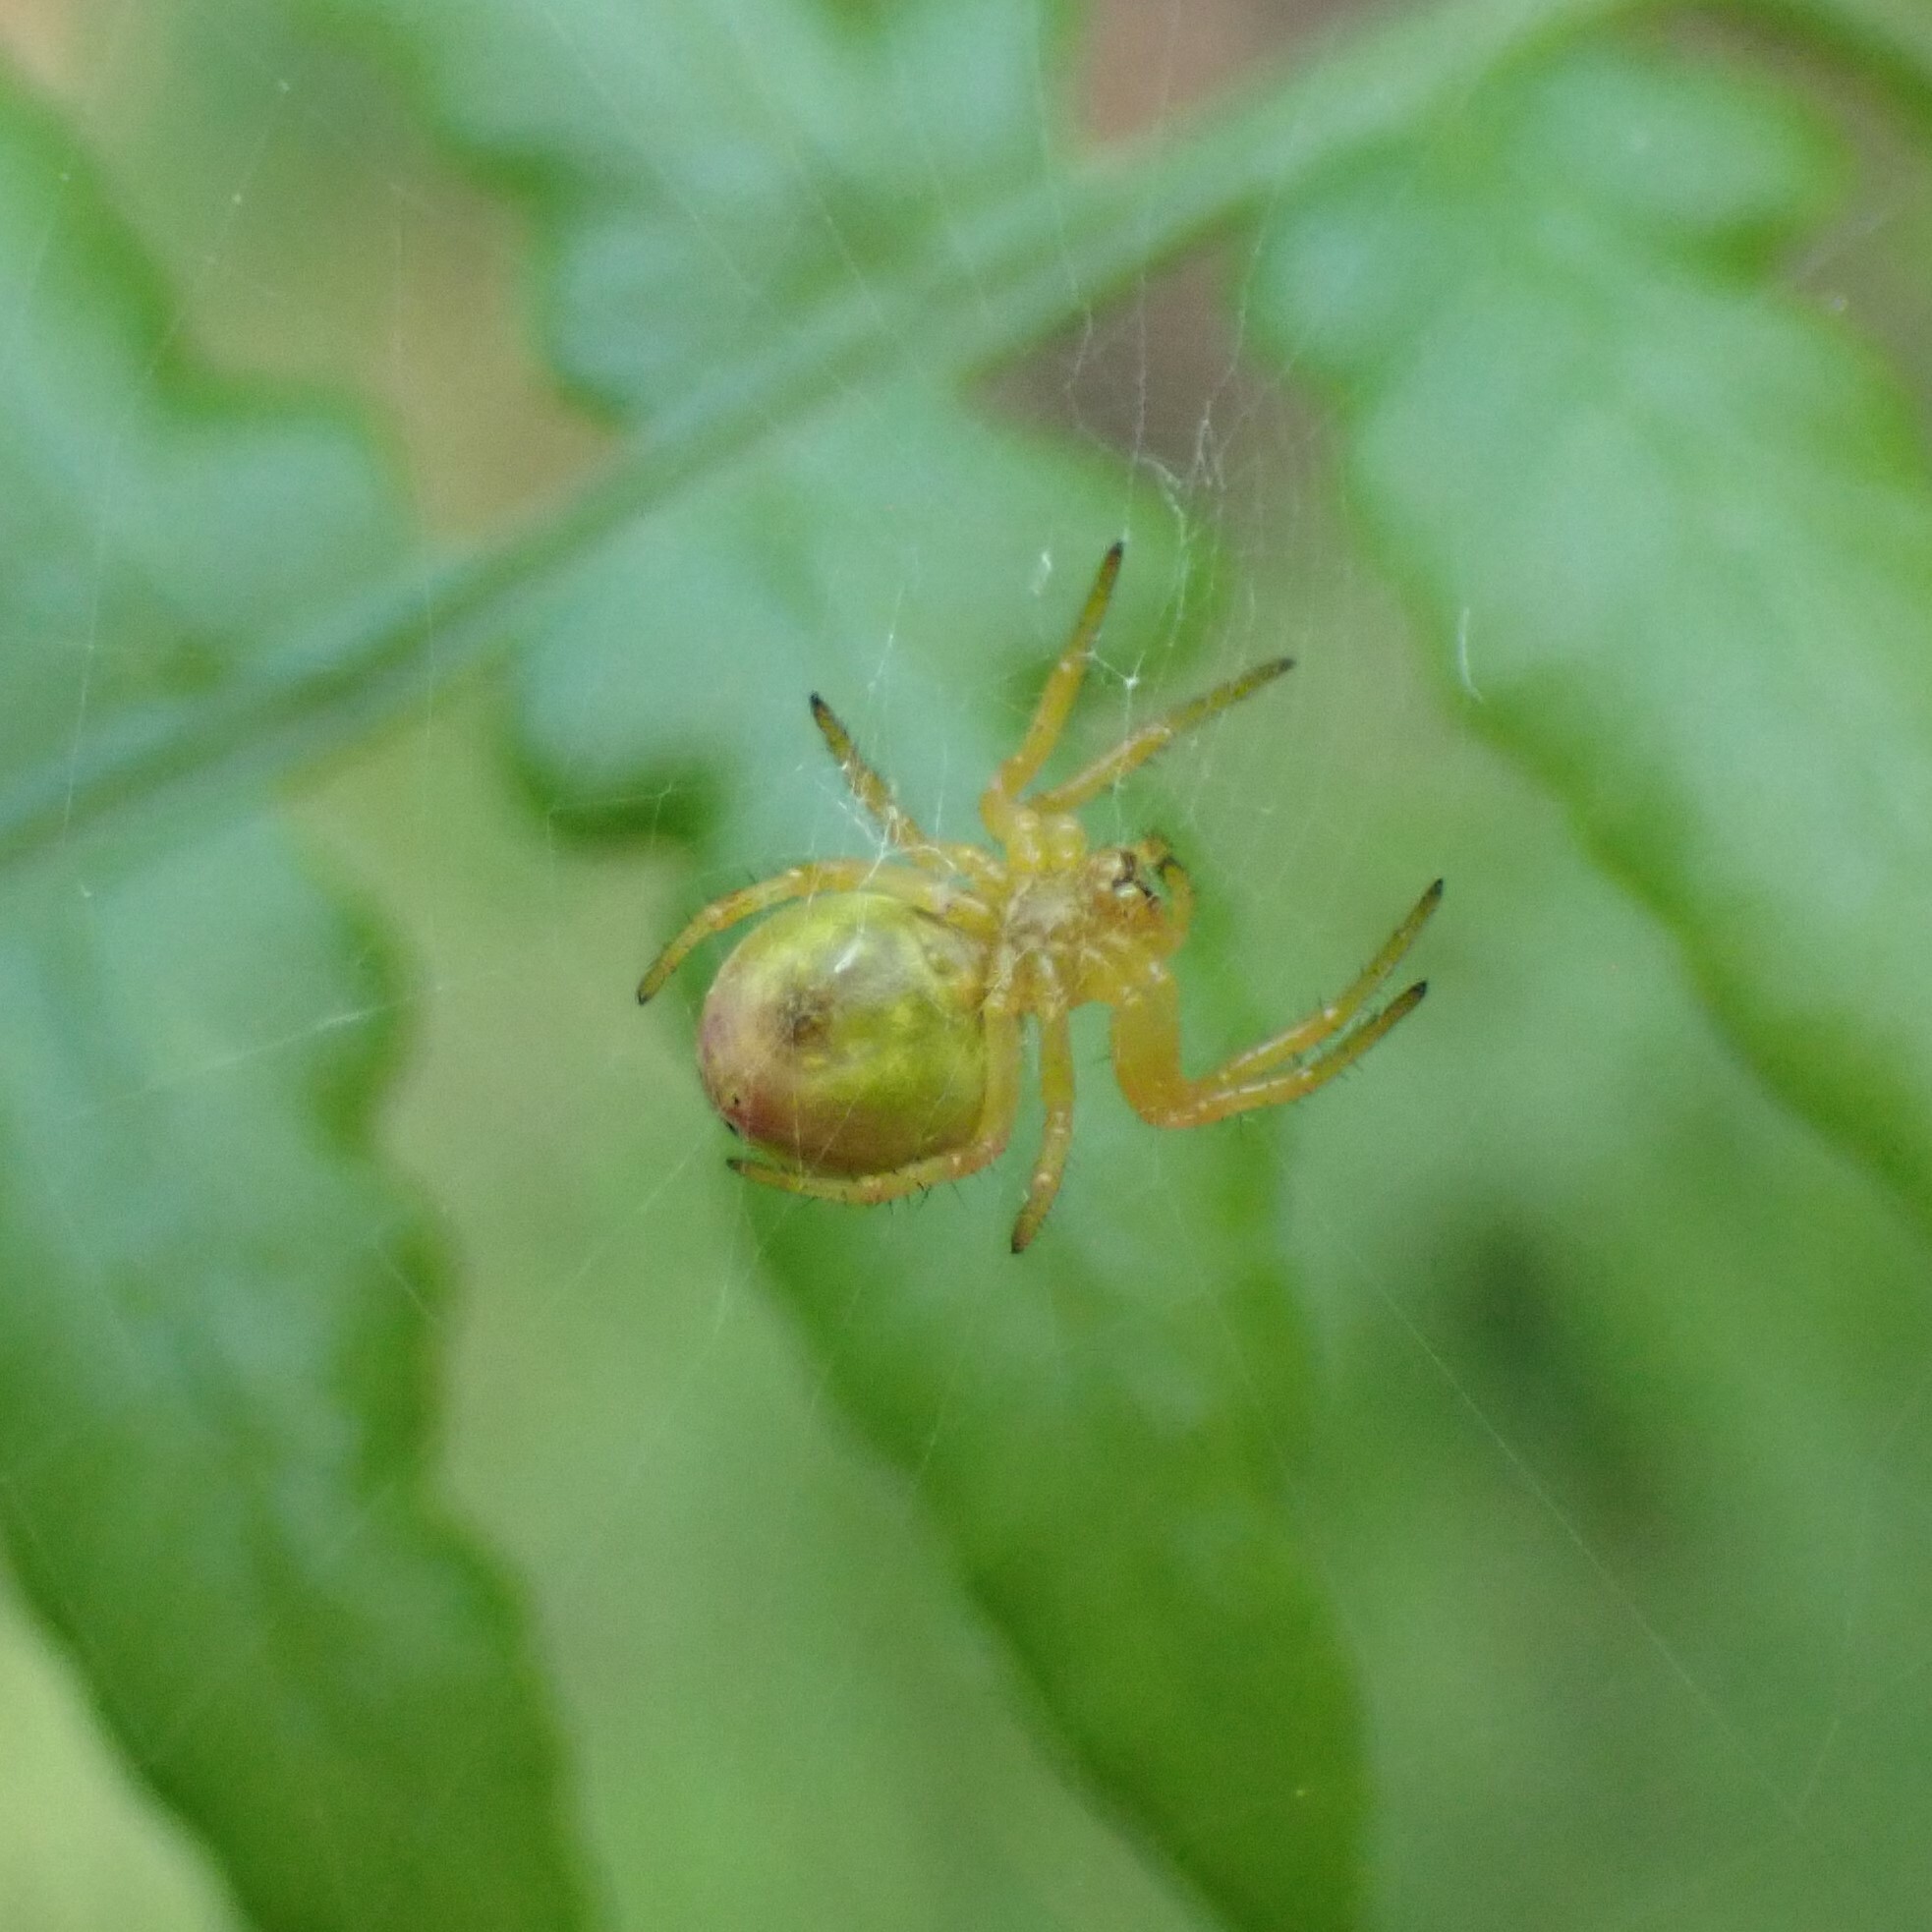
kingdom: Animalia
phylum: Arthropoda
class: Arachnida
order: Araneae
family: Araneidae
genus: Araniella
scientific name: Araniella displicata
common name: Sixspotted orb weaver
